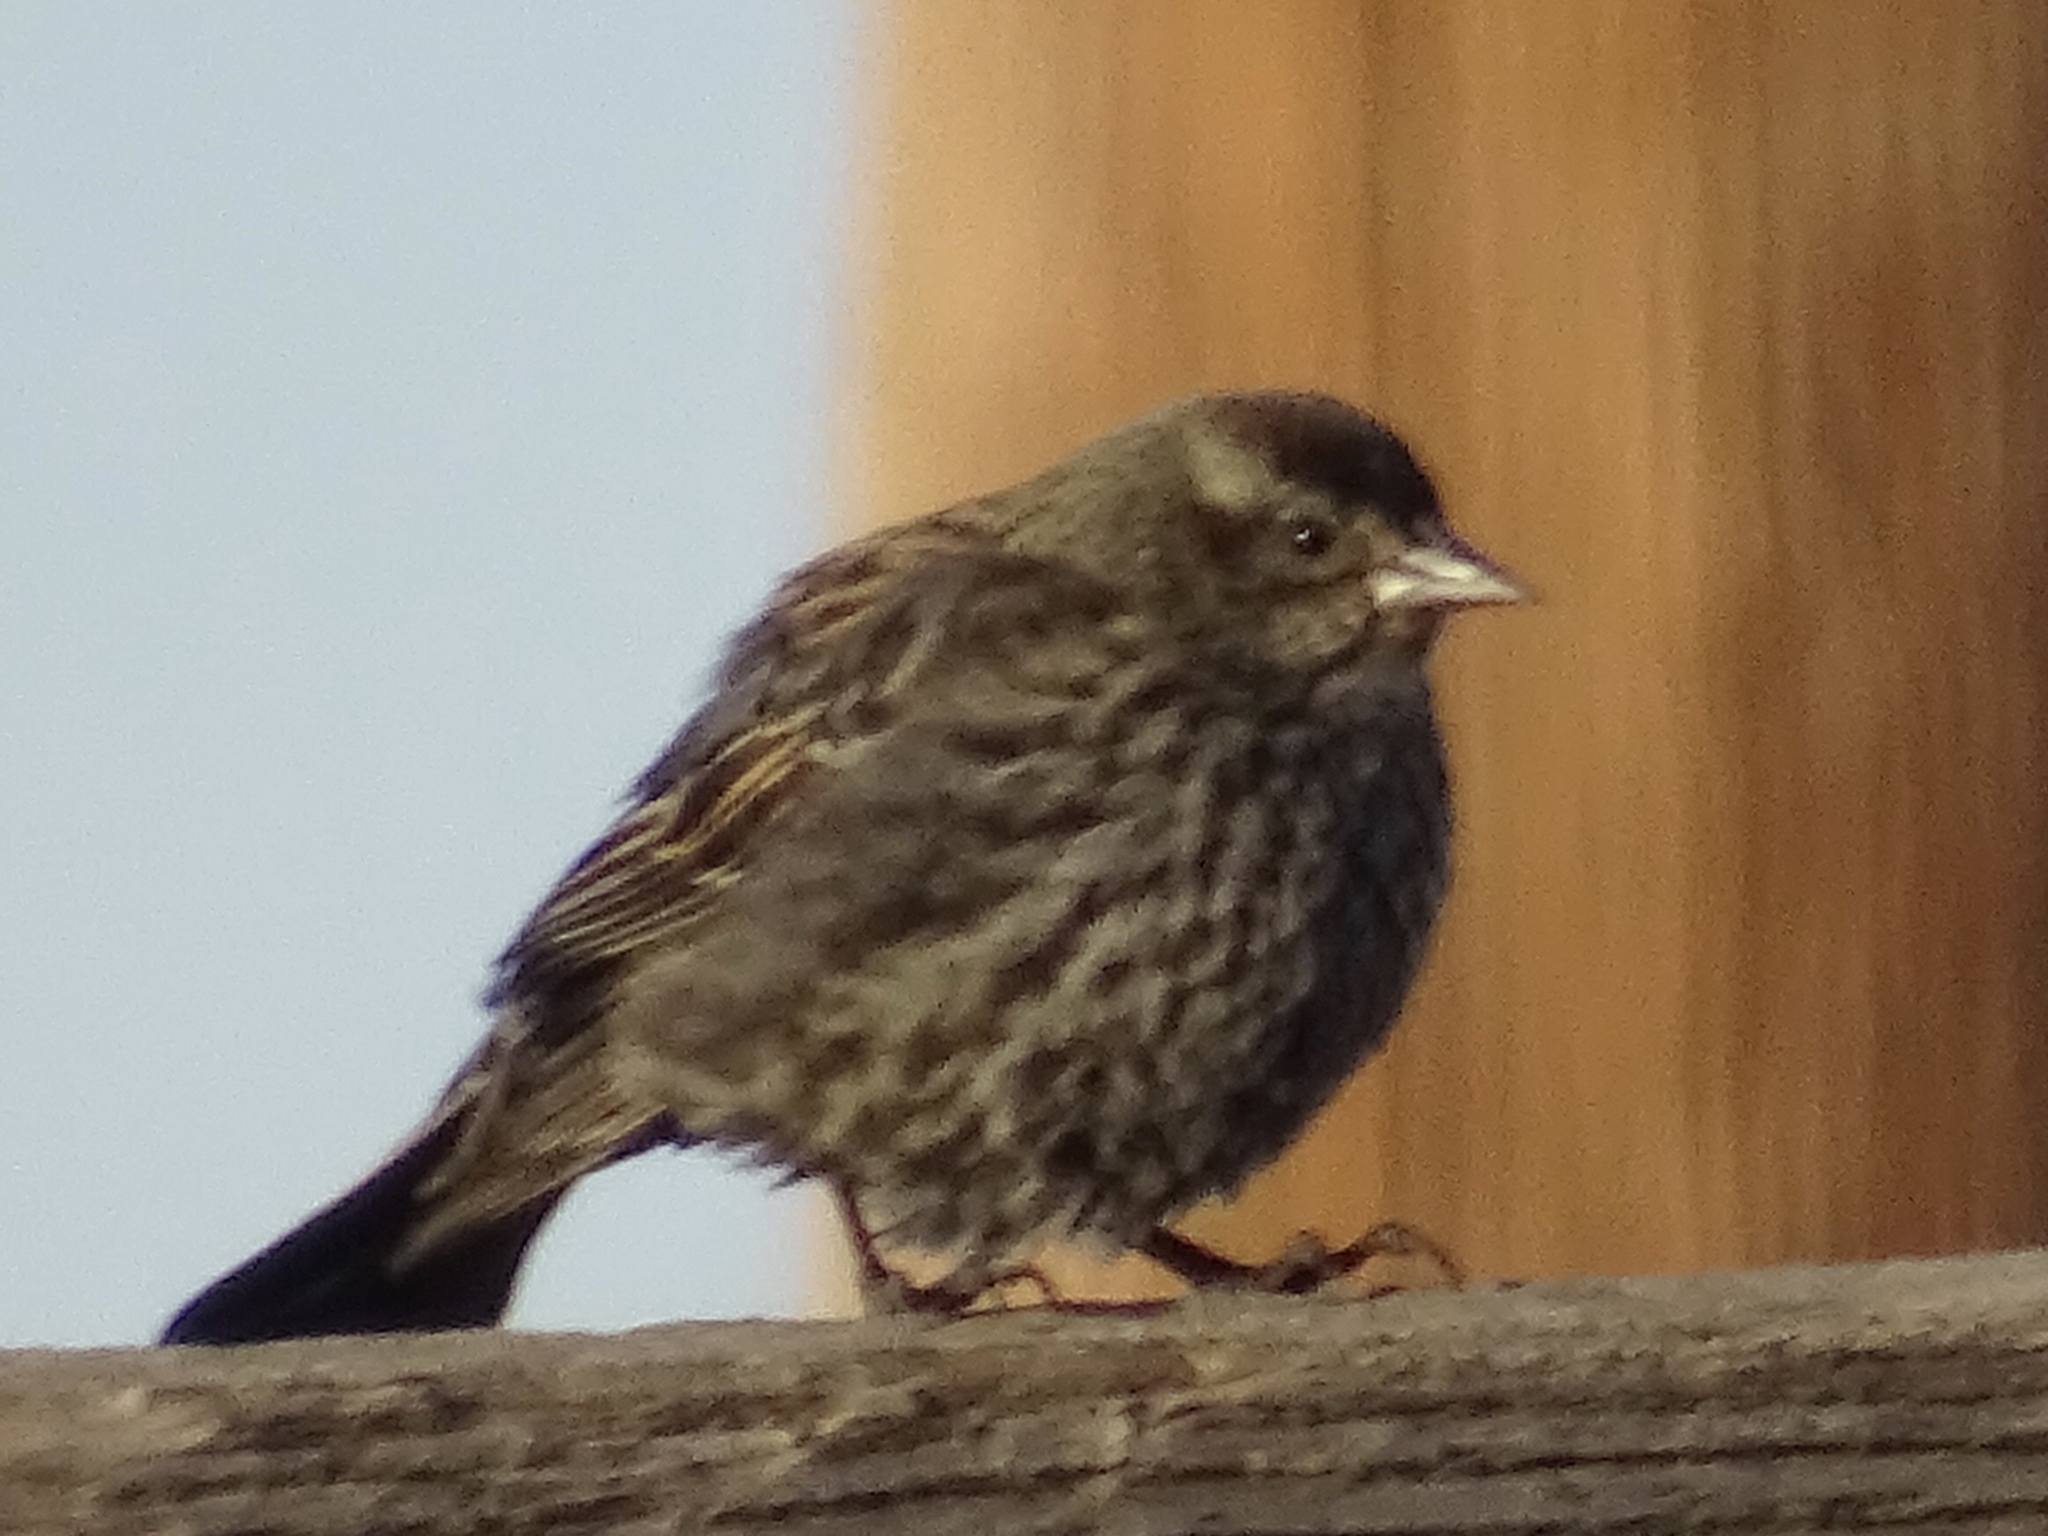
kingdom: Animalia
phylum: Chordata
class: Aves
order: Passeriformes
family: Icteridae
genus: Agelaius
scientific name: Agelaius phoeniceus
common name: Red-winged blackbird
